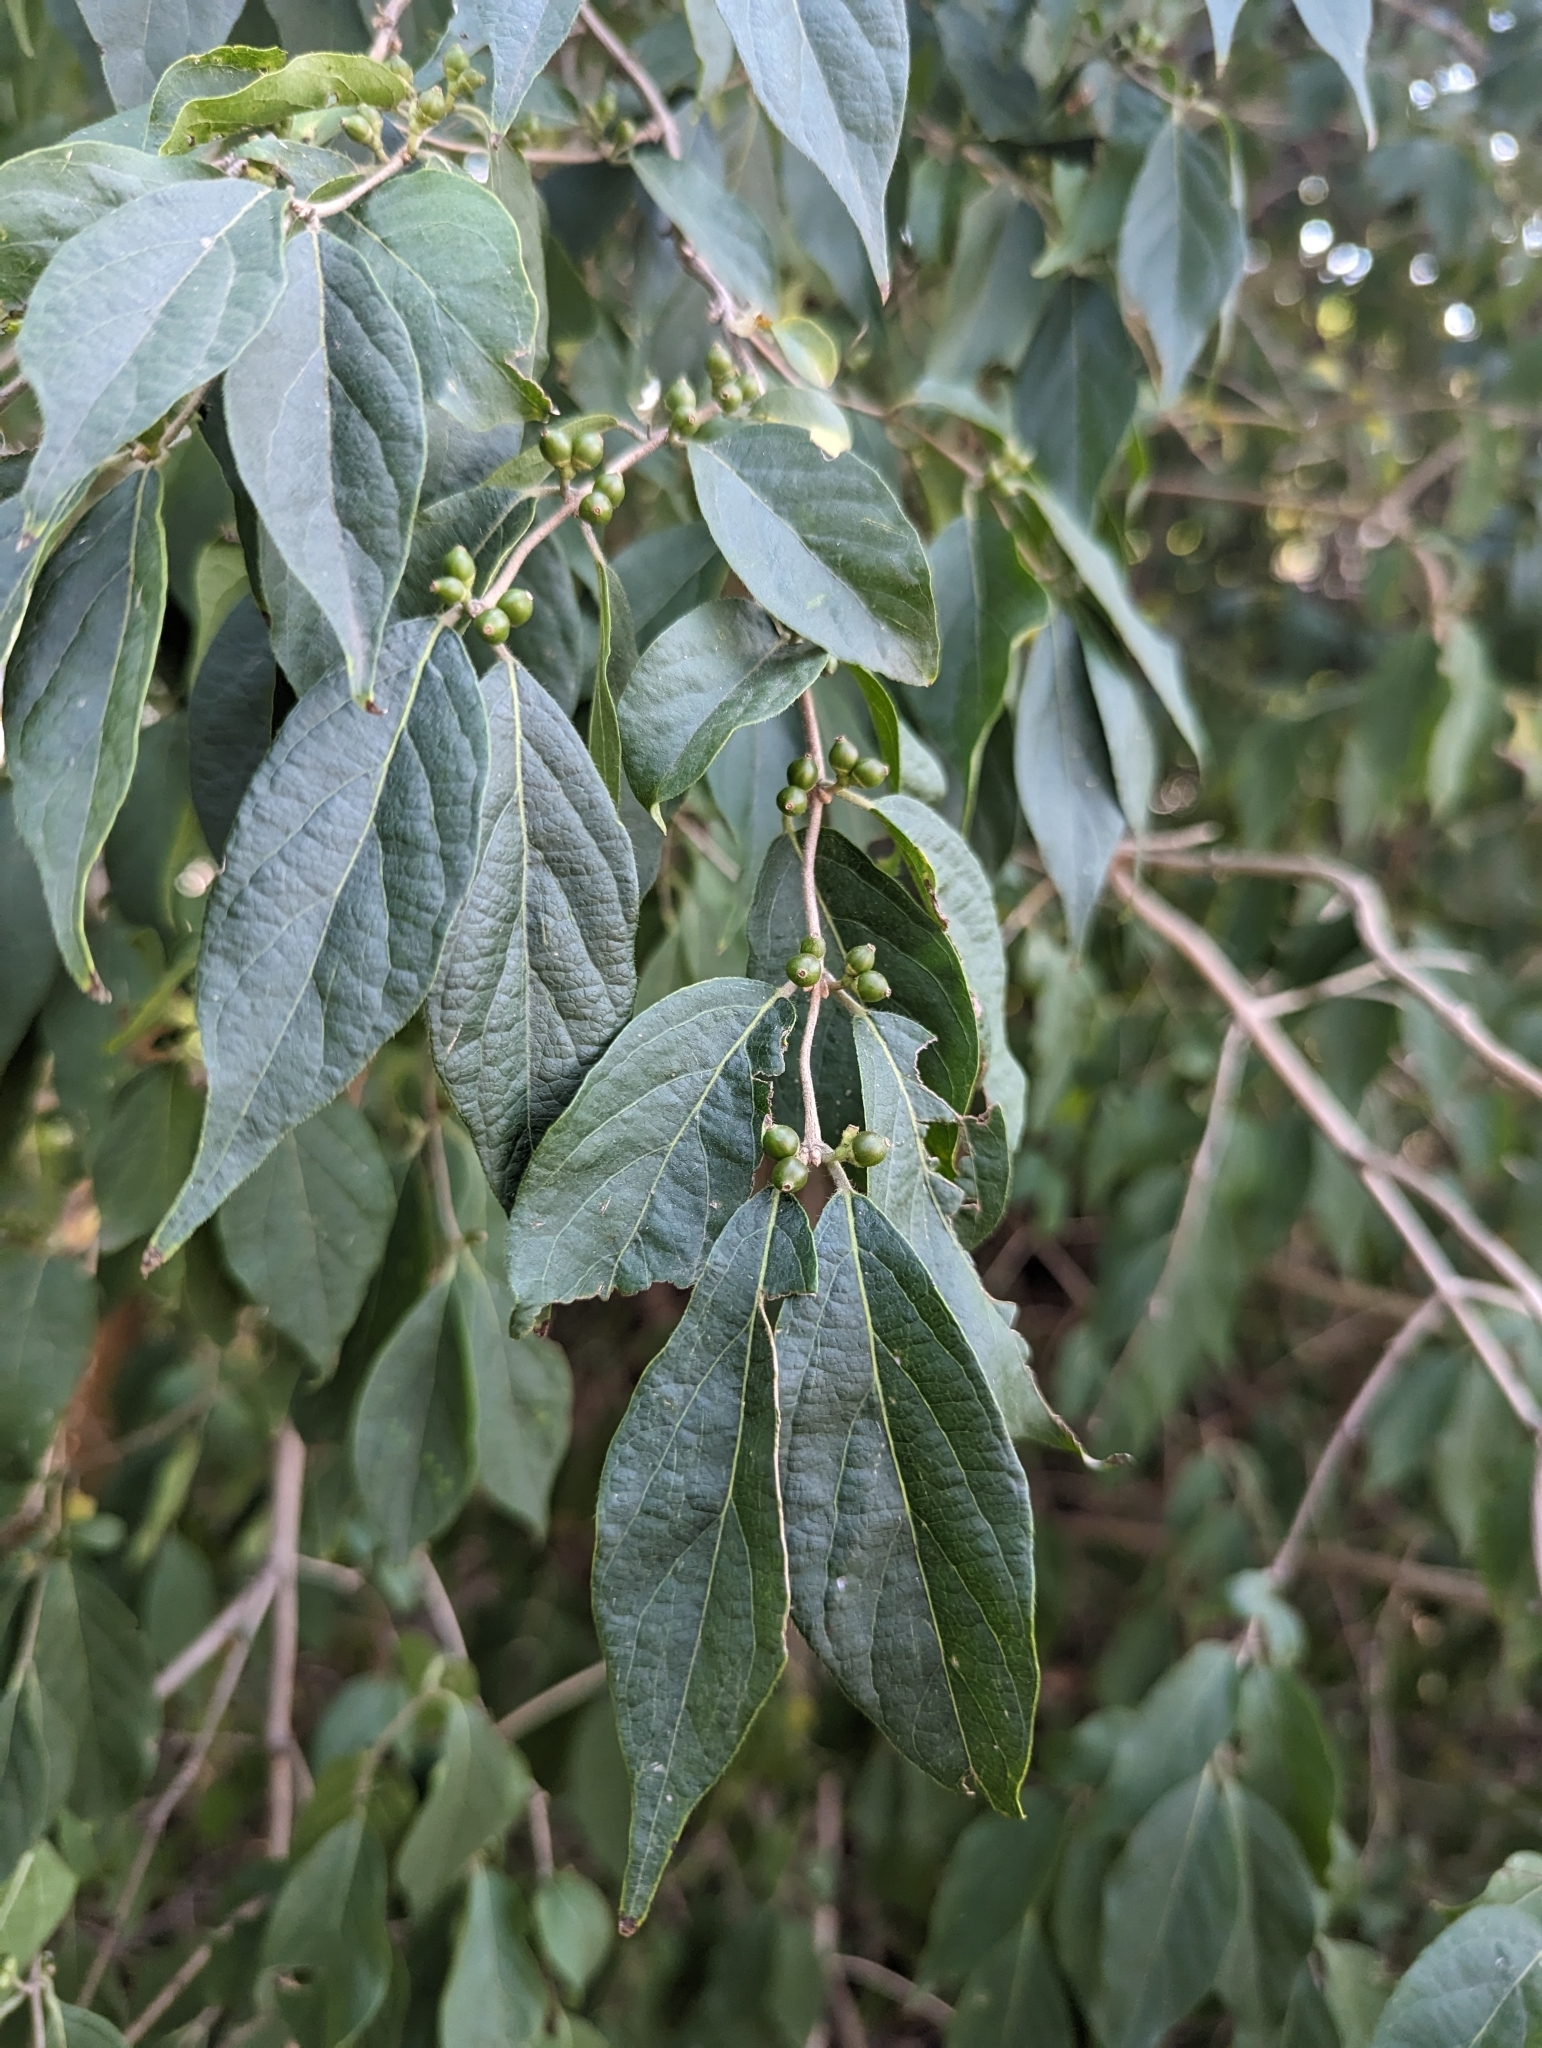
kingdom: Plantae
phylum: Tracheophyta
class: Magnoliopsida
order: Dipsacales
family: Caprifoliaceae
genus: Lonicera
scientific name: Lonicera maackii
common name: Amur honeysuckle
